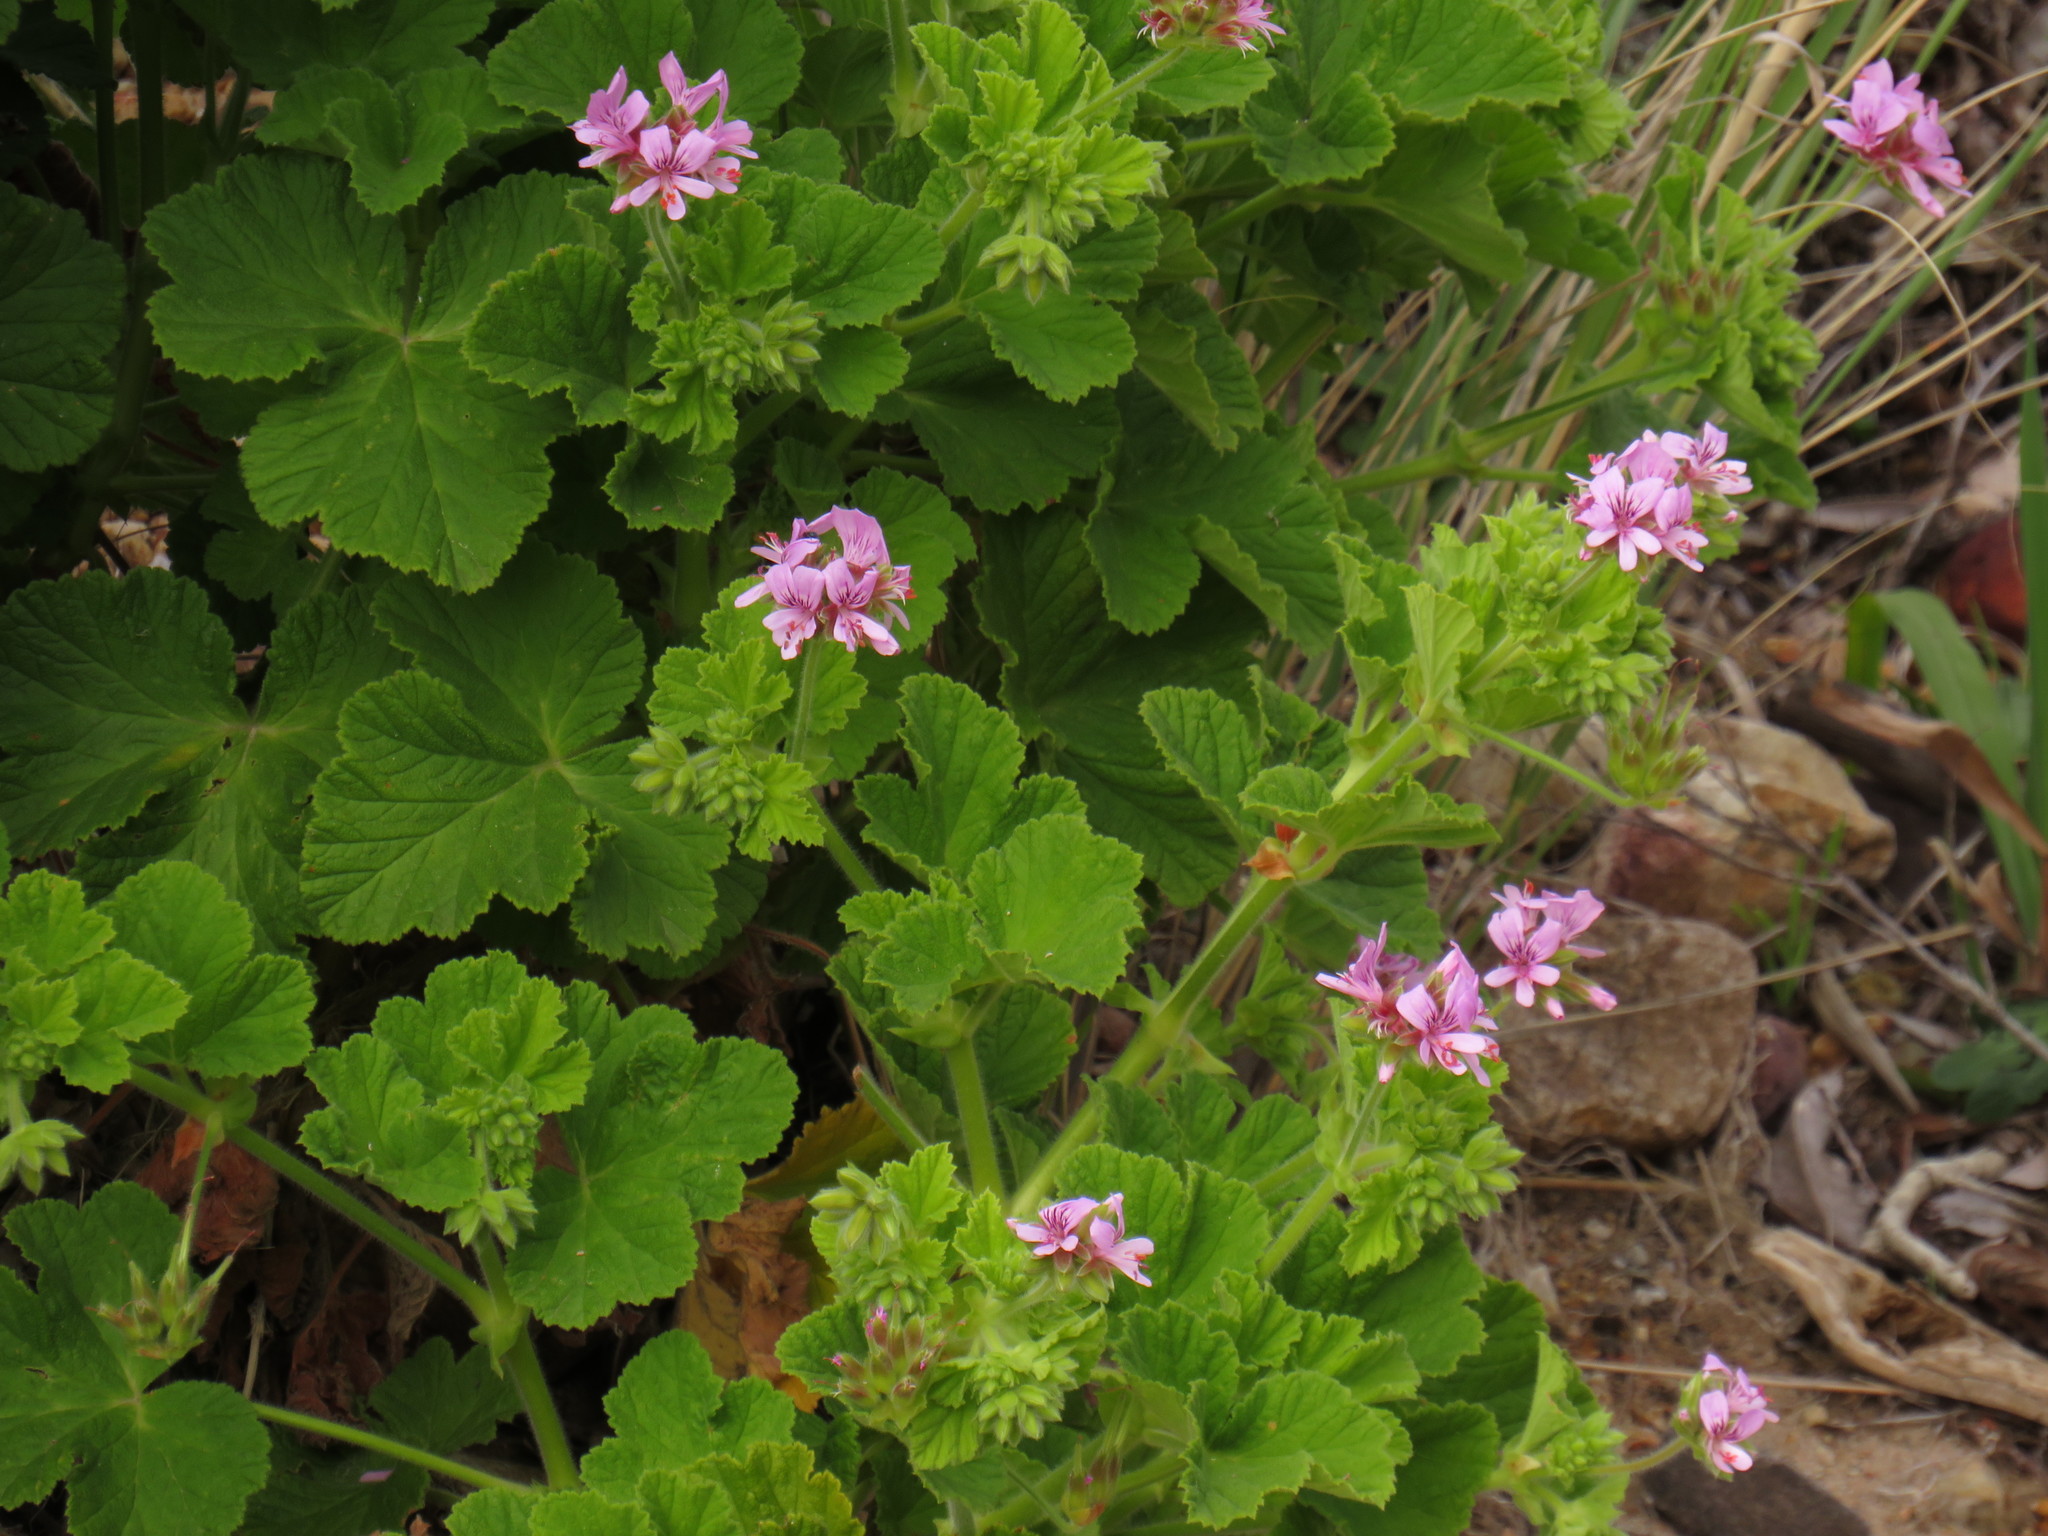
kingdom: Plantae
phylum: Tracheophyta
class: Magnoliopsida
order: Geraniales
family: Geraniaceae
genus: Pelargonium
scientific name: Pelargonium vitifolium
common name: Grapeleaf geranium
